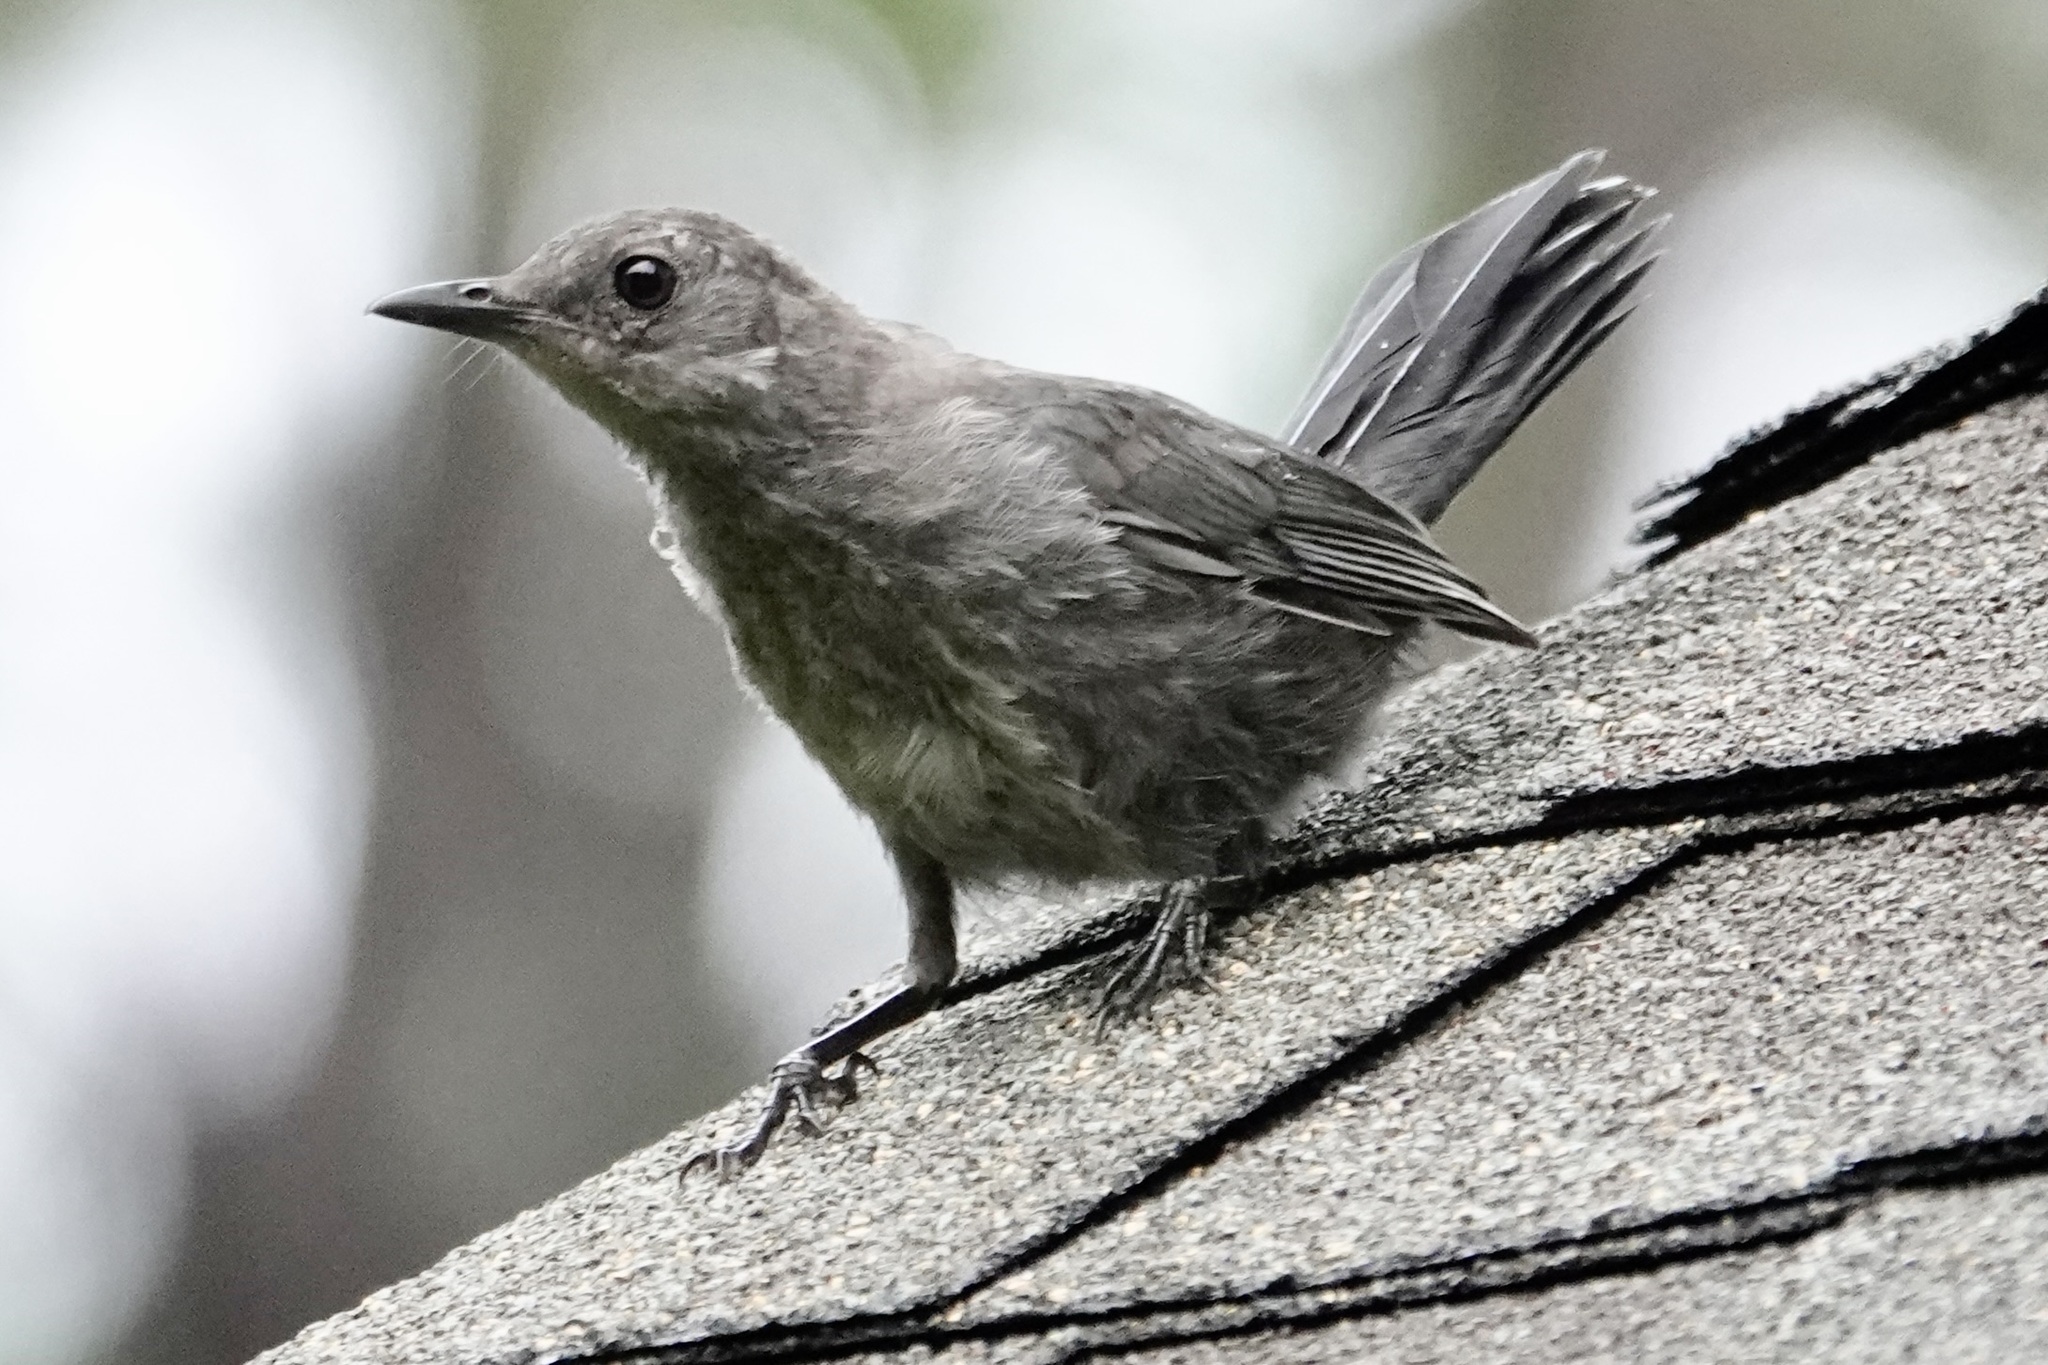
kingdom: Animalia
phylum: Chordata
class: Aves
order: Passeriformes
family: Mimidae
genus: Dumetella
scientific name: Dumetella carolinensis
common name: Gray catbird
